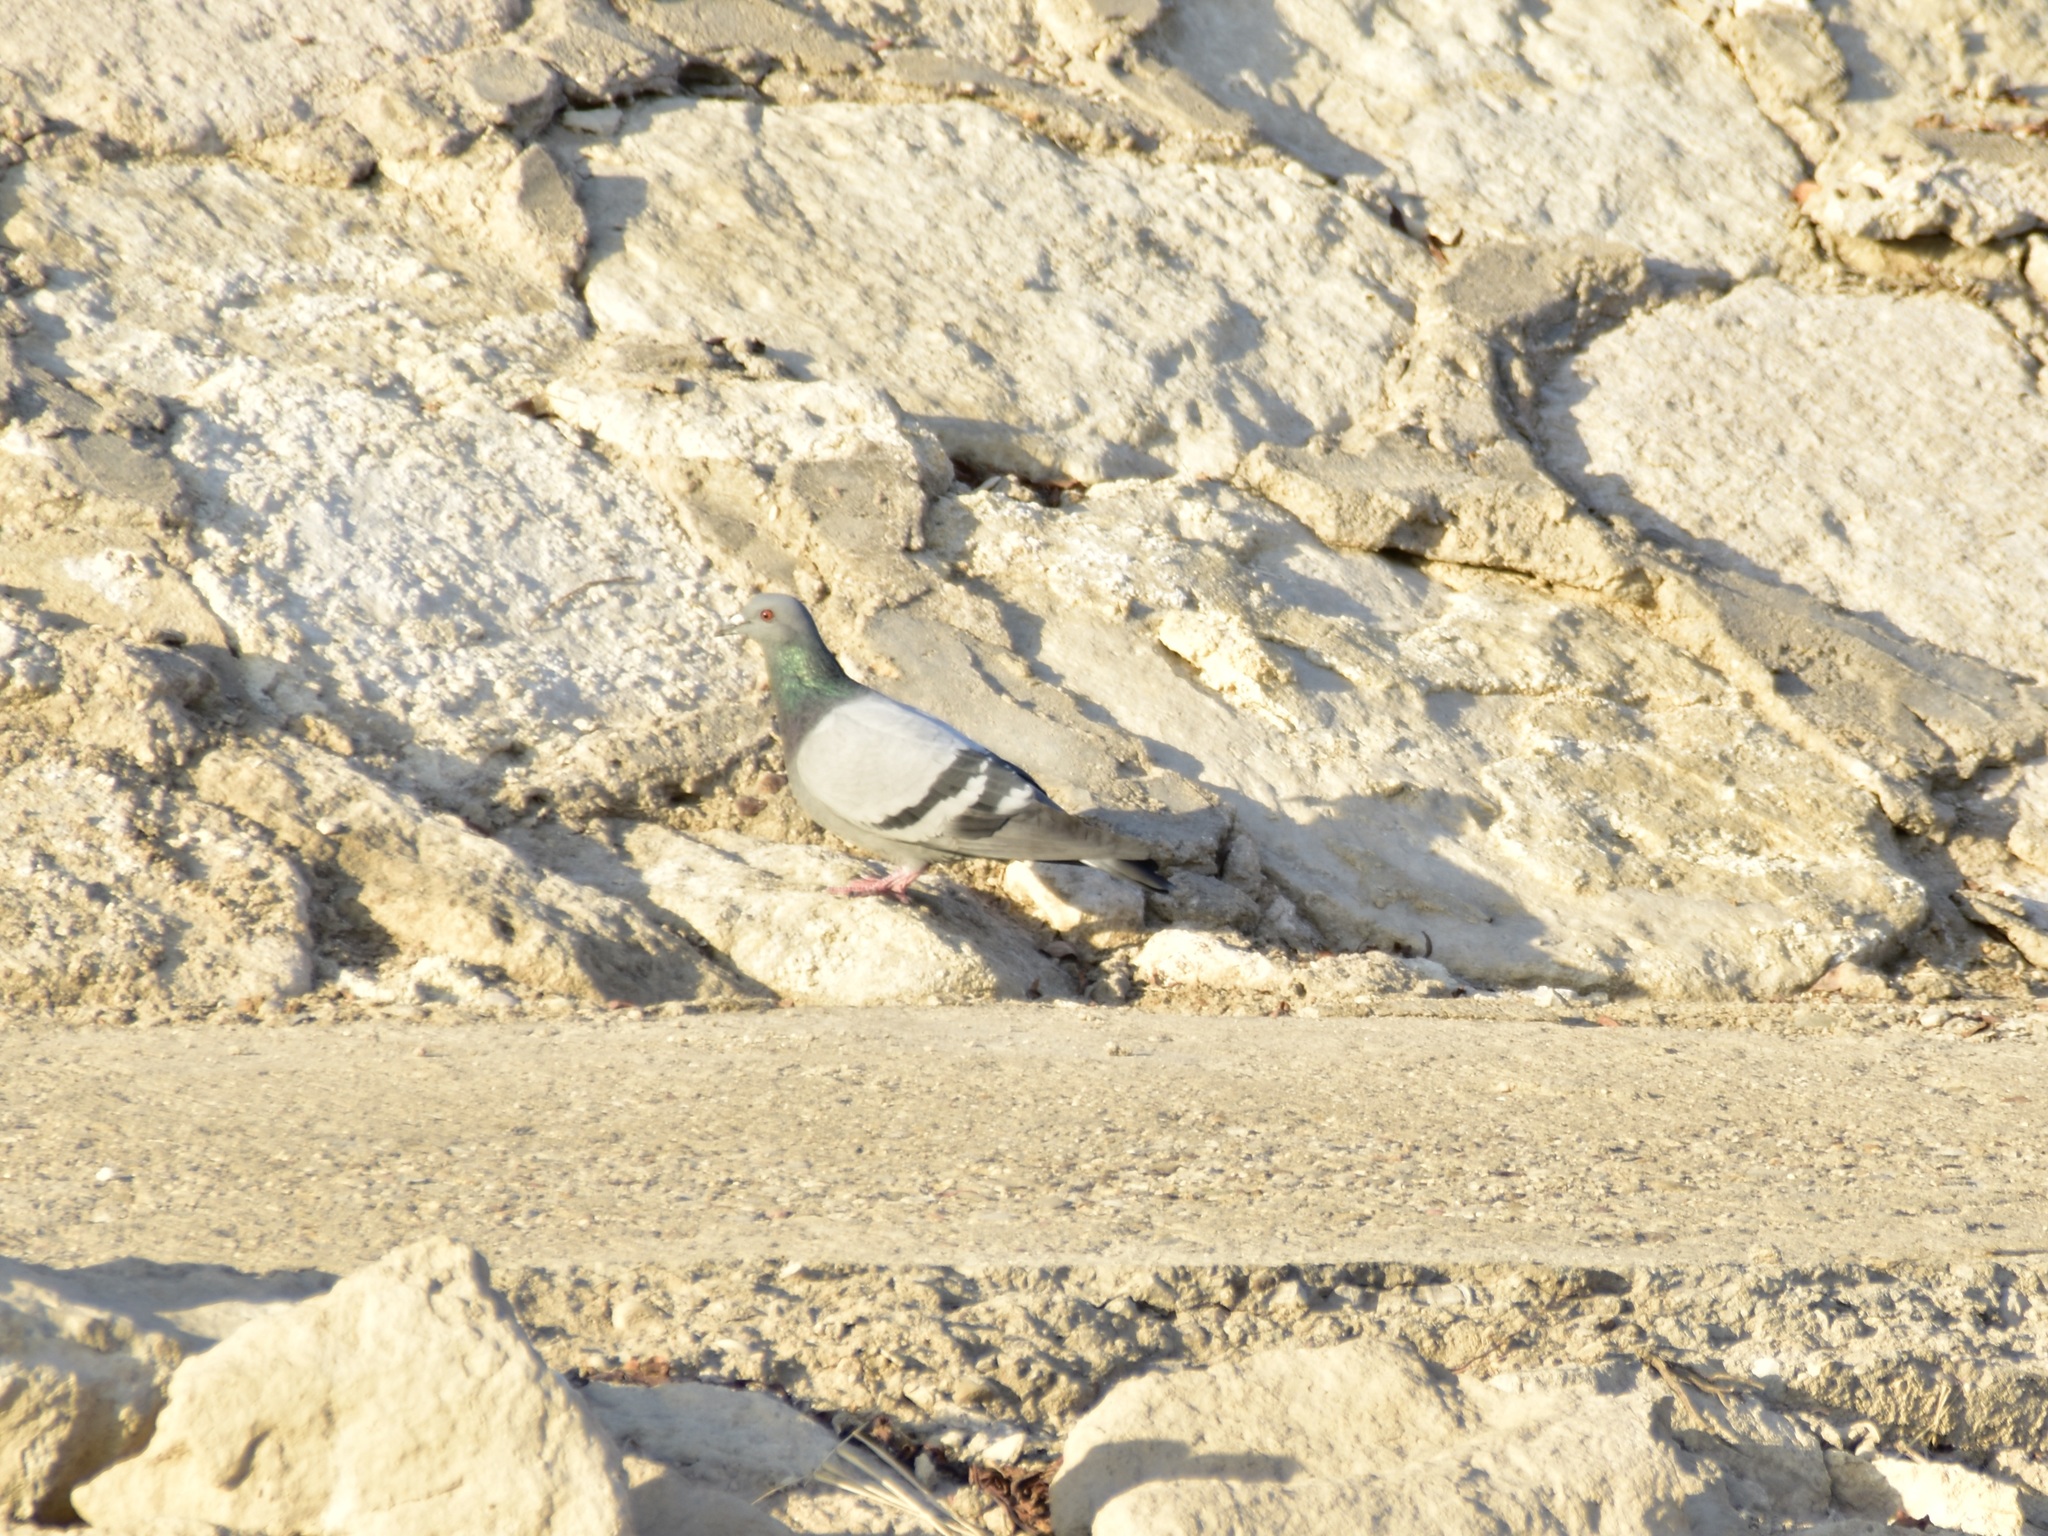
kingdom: Animalia
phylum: Chordata
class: Aves
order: Columbiformes
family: Columbidae
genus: Columba
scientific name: Columba livia
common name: Rock pigeon
